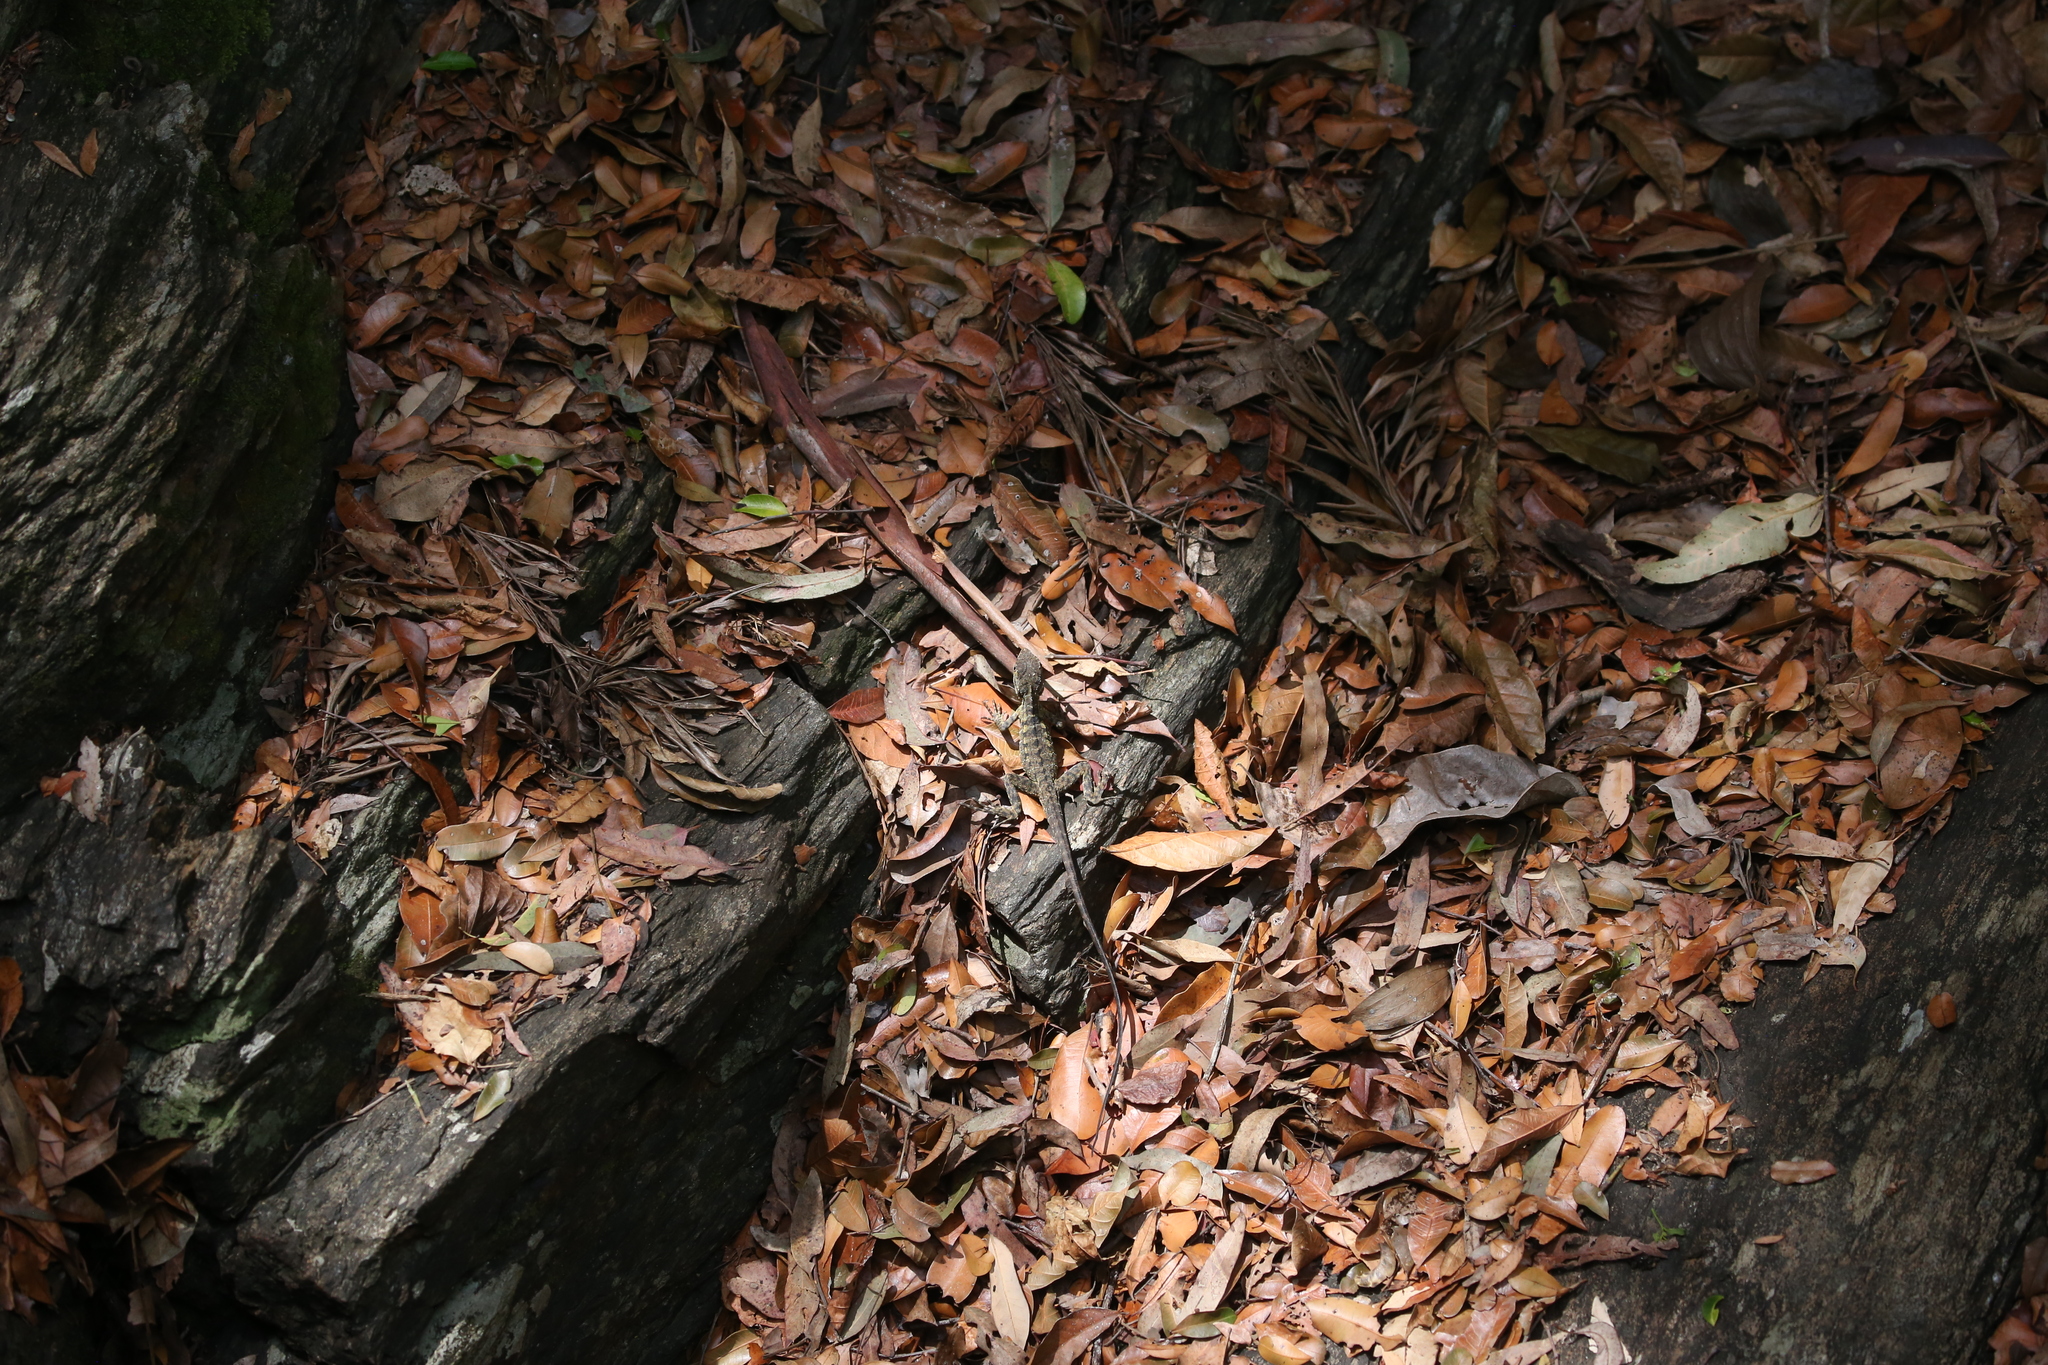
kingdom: Animalia
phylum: Chordata
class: Squamata
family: Agamidae
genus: Intellagama
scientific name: Intellagama lesueurii
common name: Eastern water dragon
